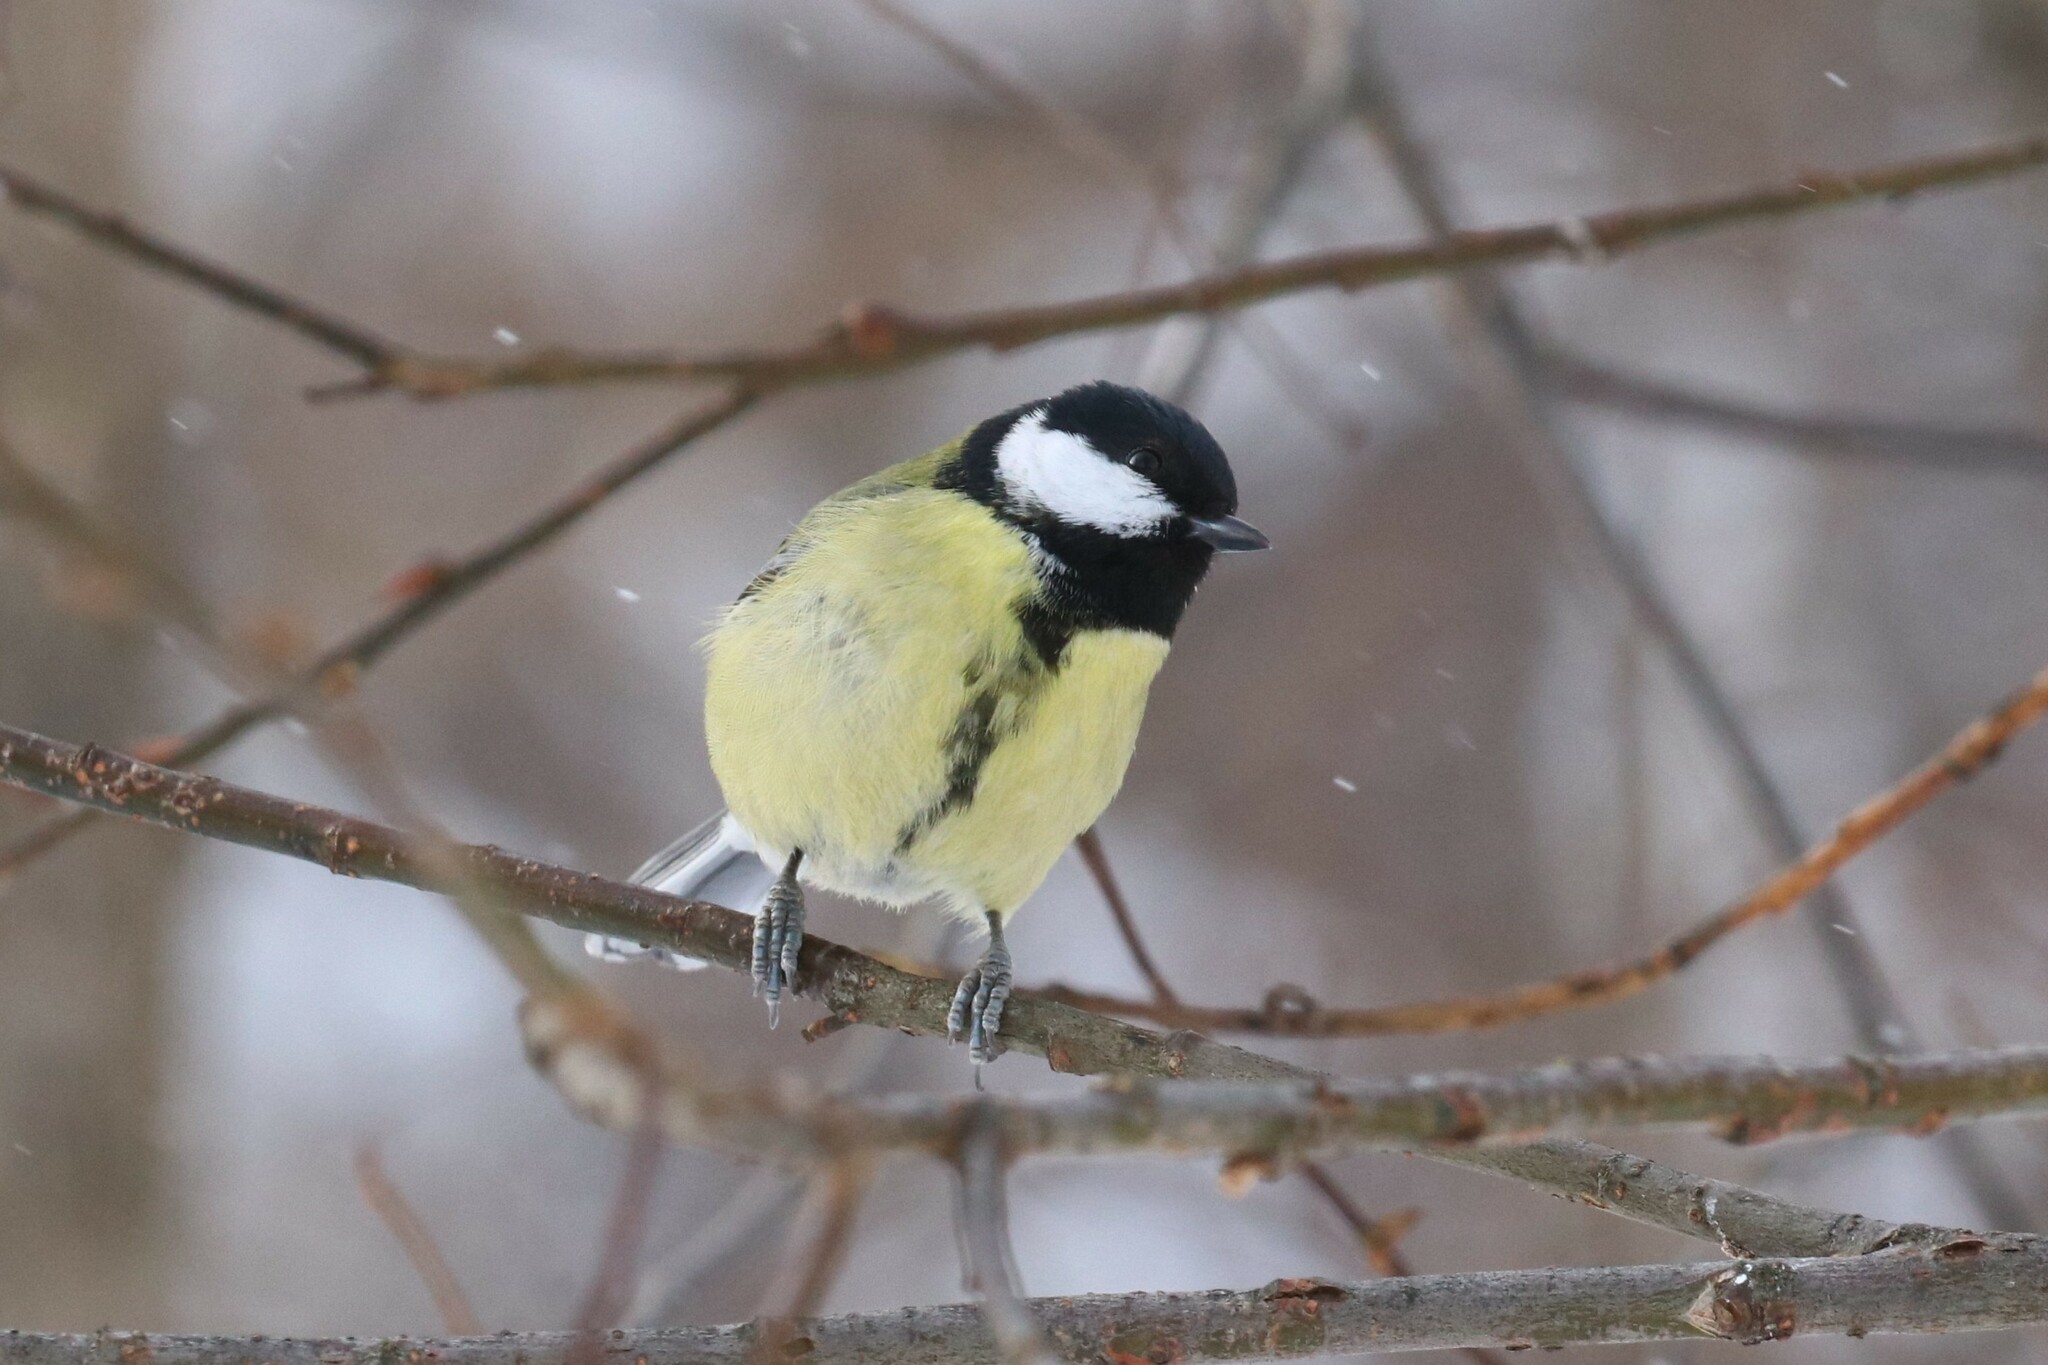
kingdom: Animalia
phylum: Chordata
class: Aves
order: Passeriformes
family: Paridae
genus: Parus
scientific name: Parus major
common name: Great tit
